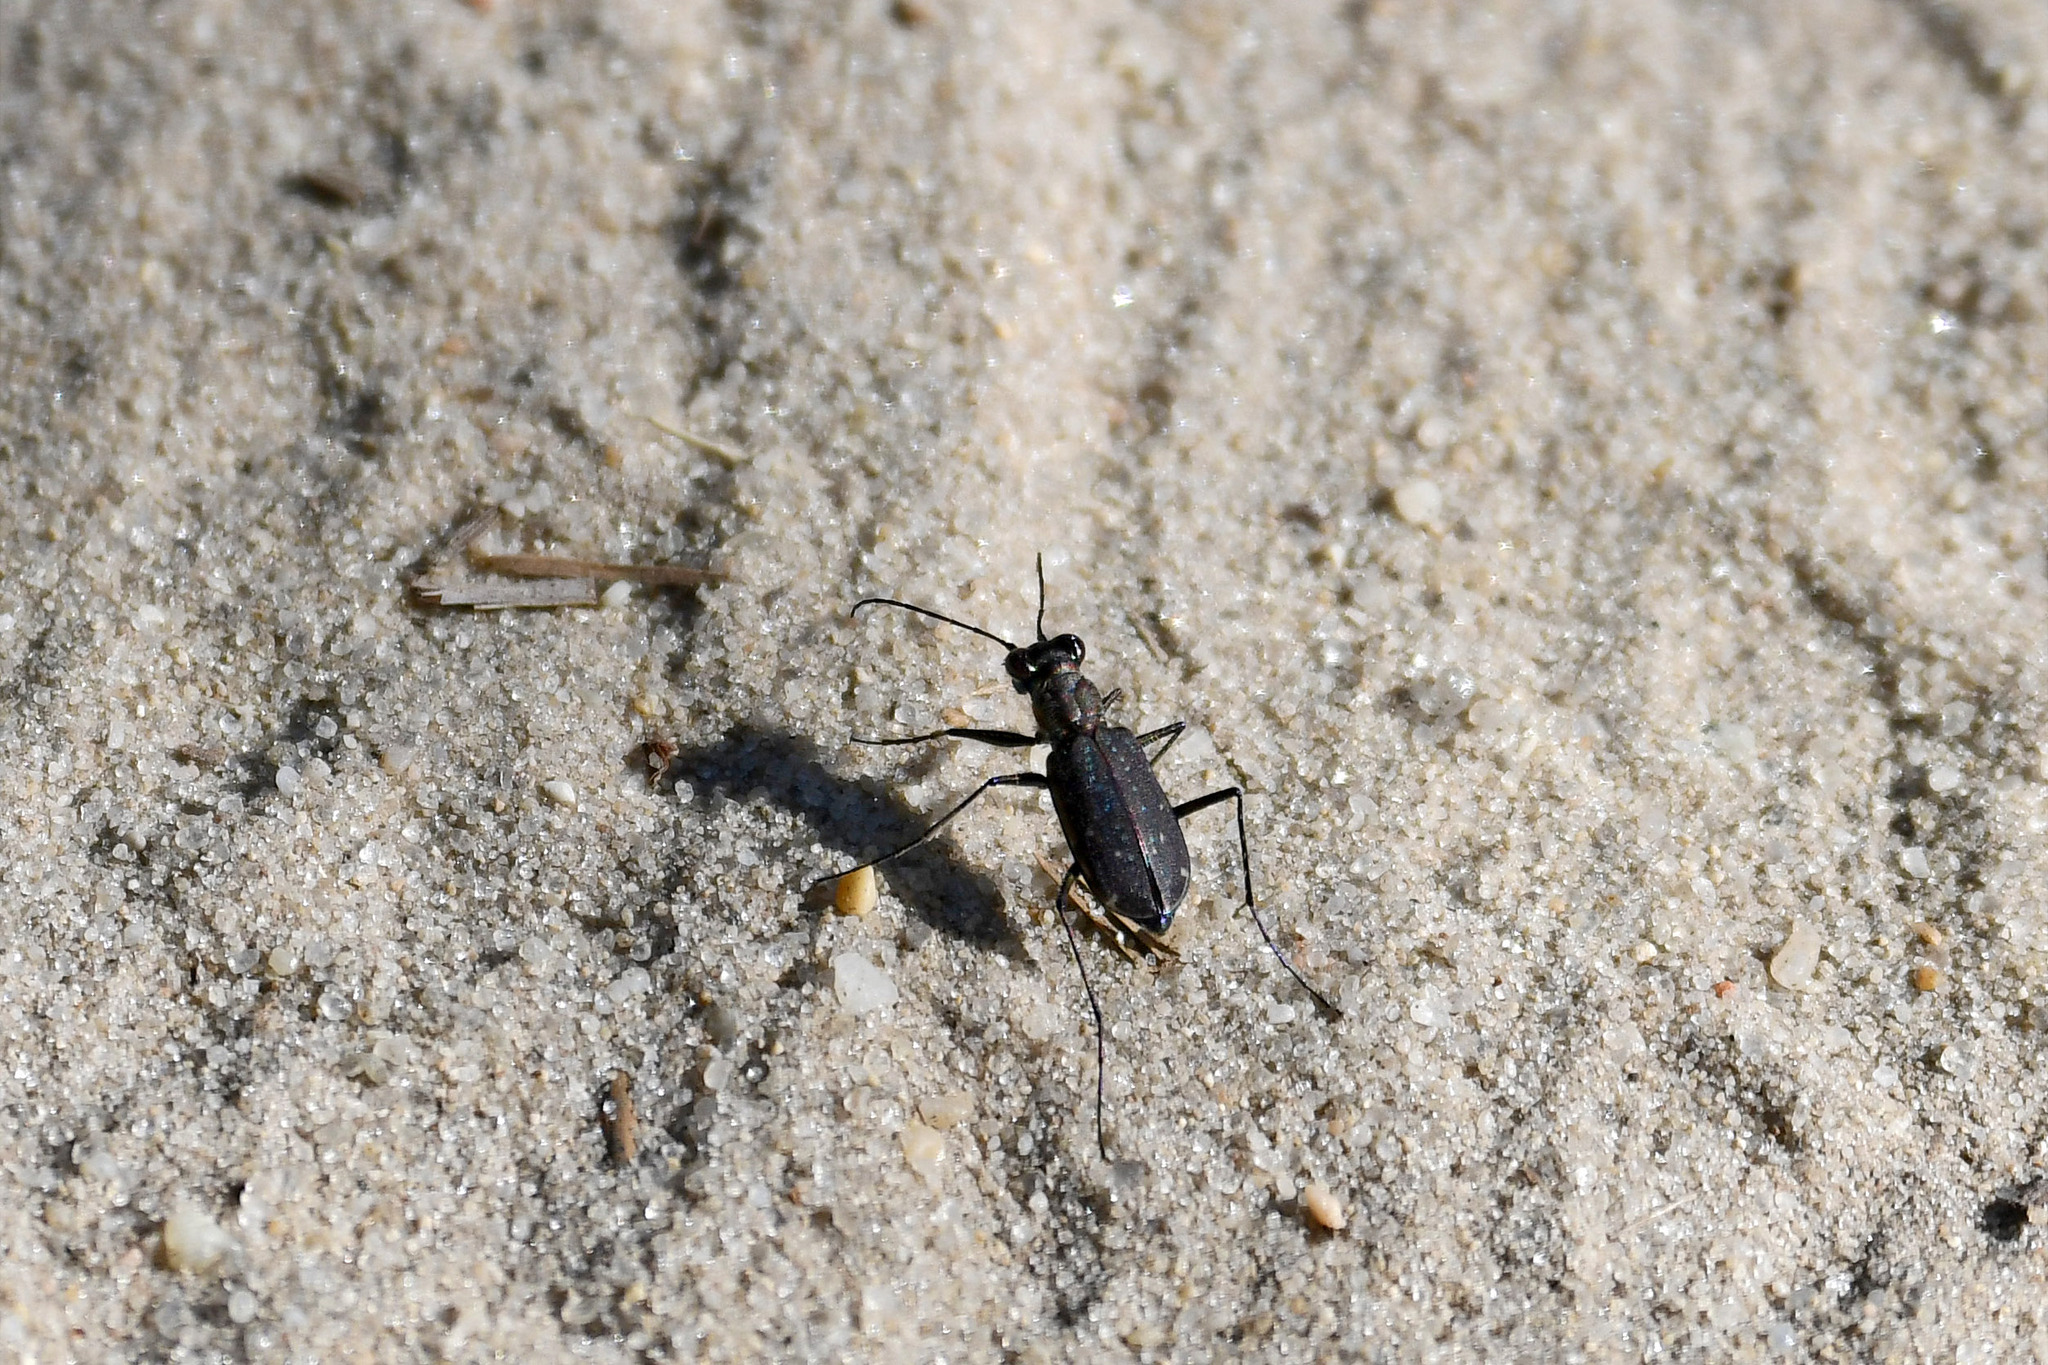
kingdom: Animalia
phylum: Arthropoda
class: Insecta
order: Coleoptera
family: Carabidae
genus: Cicindela
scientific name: Cicindela punctulata
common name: Punctured tiger beetle
